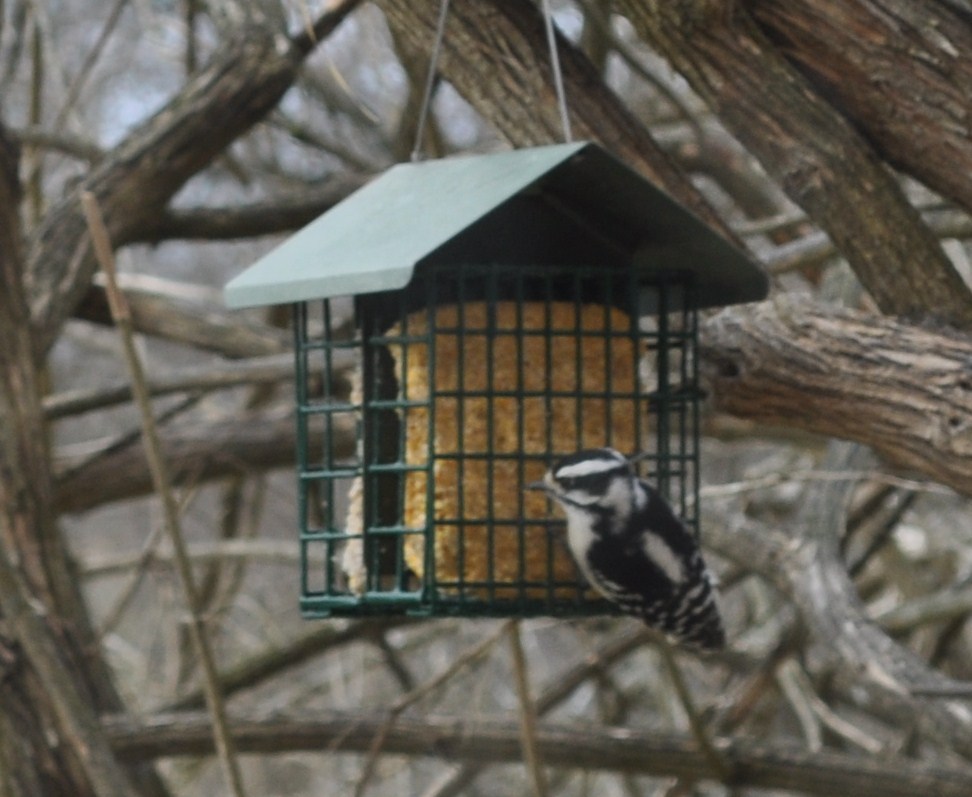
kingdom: Animalia
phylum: Chordata
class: Aves
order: Piciformes
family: Picidae
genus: Dryobates
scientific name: Dryobates pubescens
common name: Downy woodpecker
